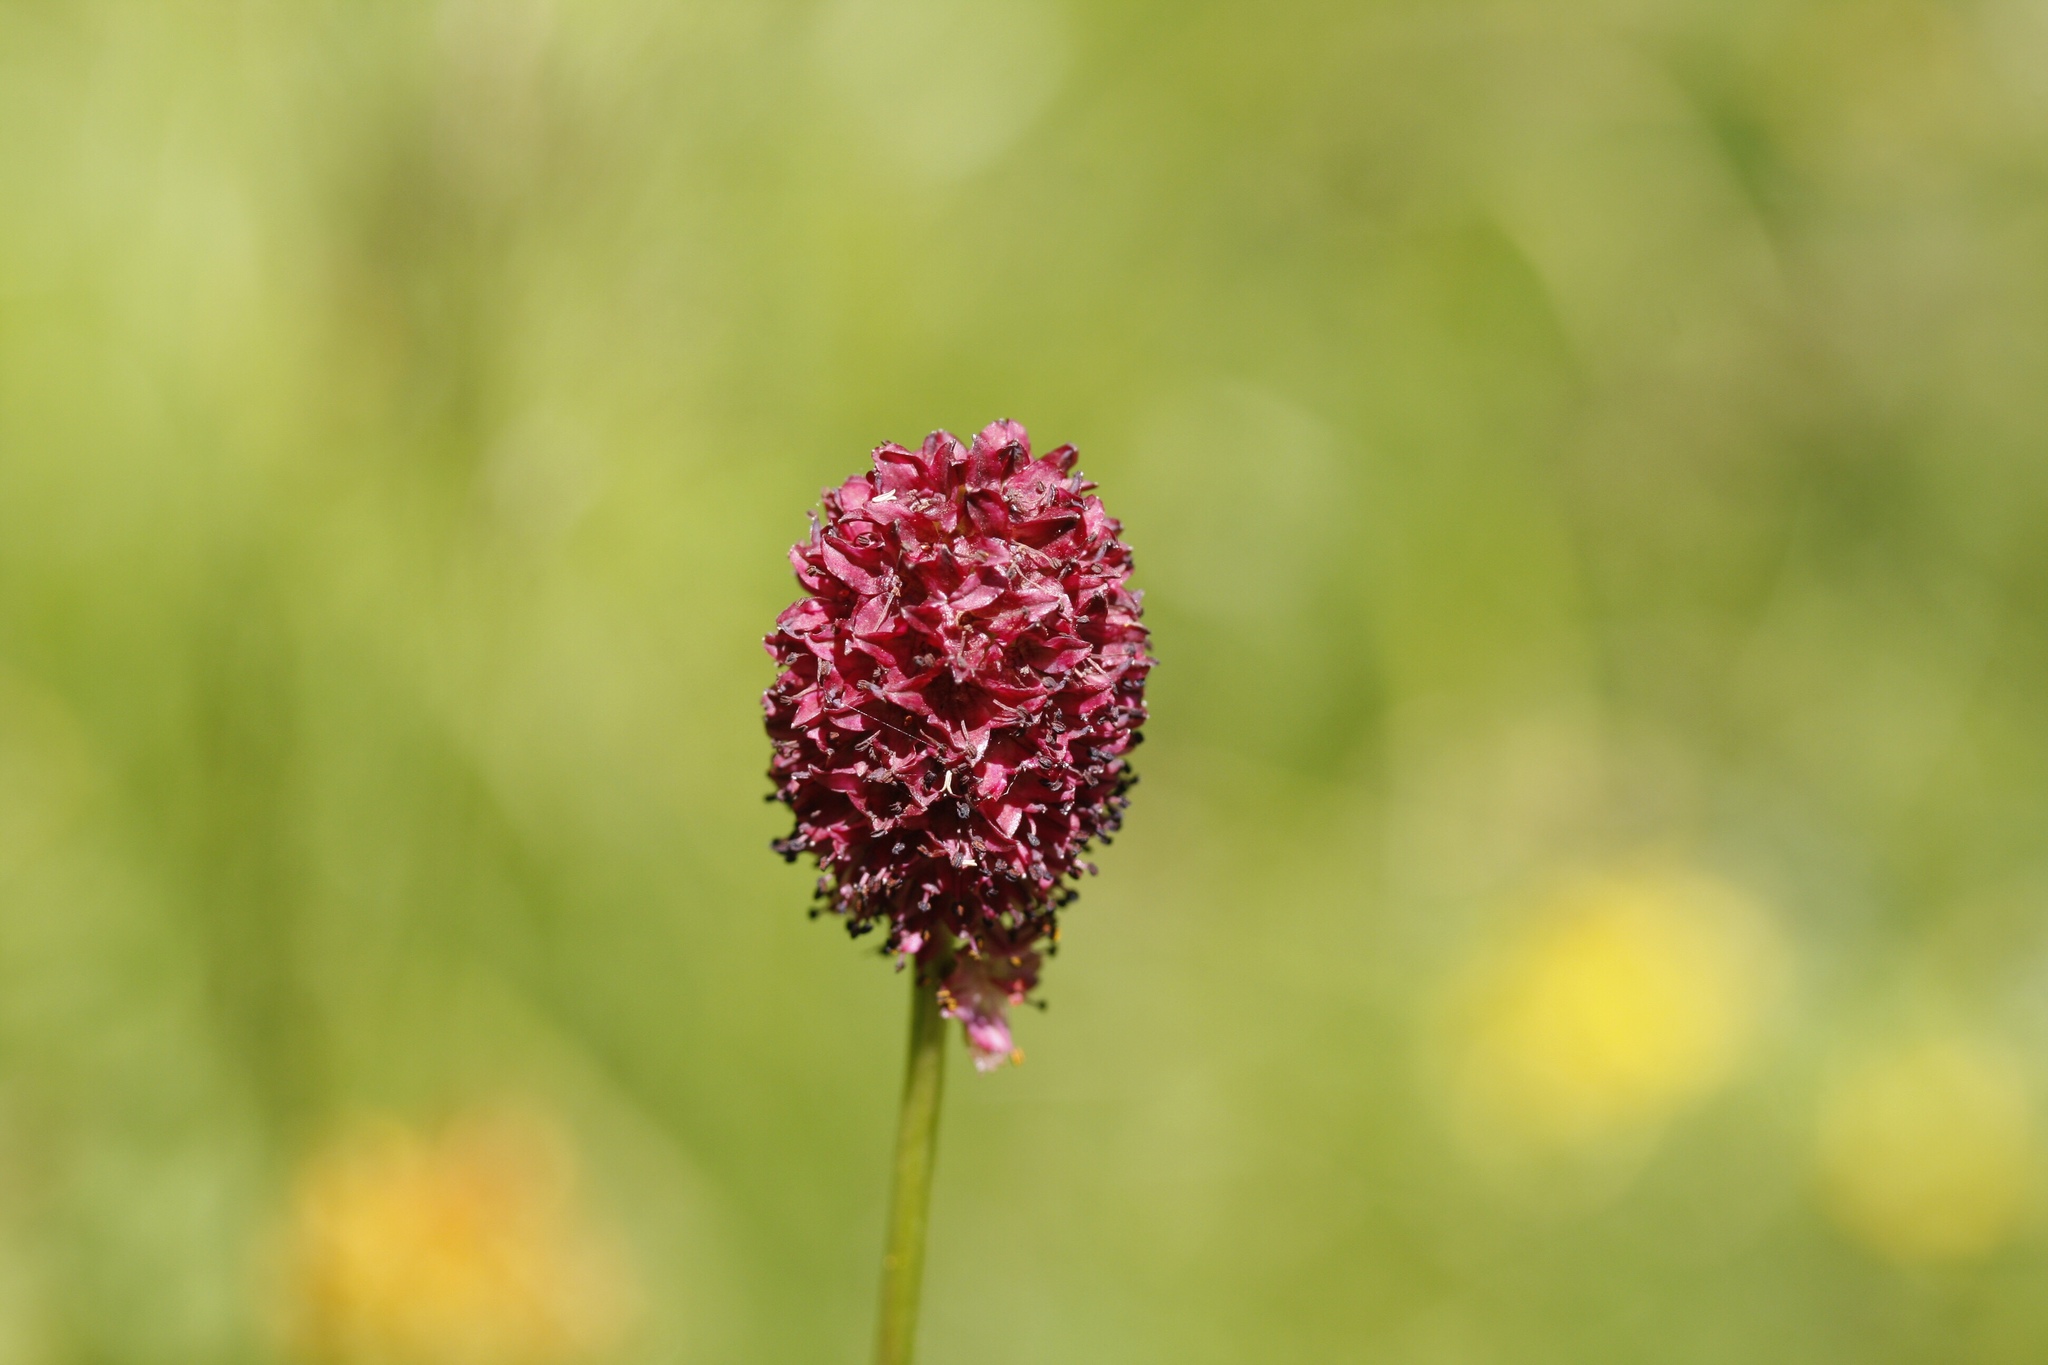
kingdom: Plantae
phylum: Tracheophyta
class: Magnoliopsida
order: Rosales
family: Rosaceae
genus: Sanguisorba
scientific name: Sanguisorba officinalis
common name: Great burnet
